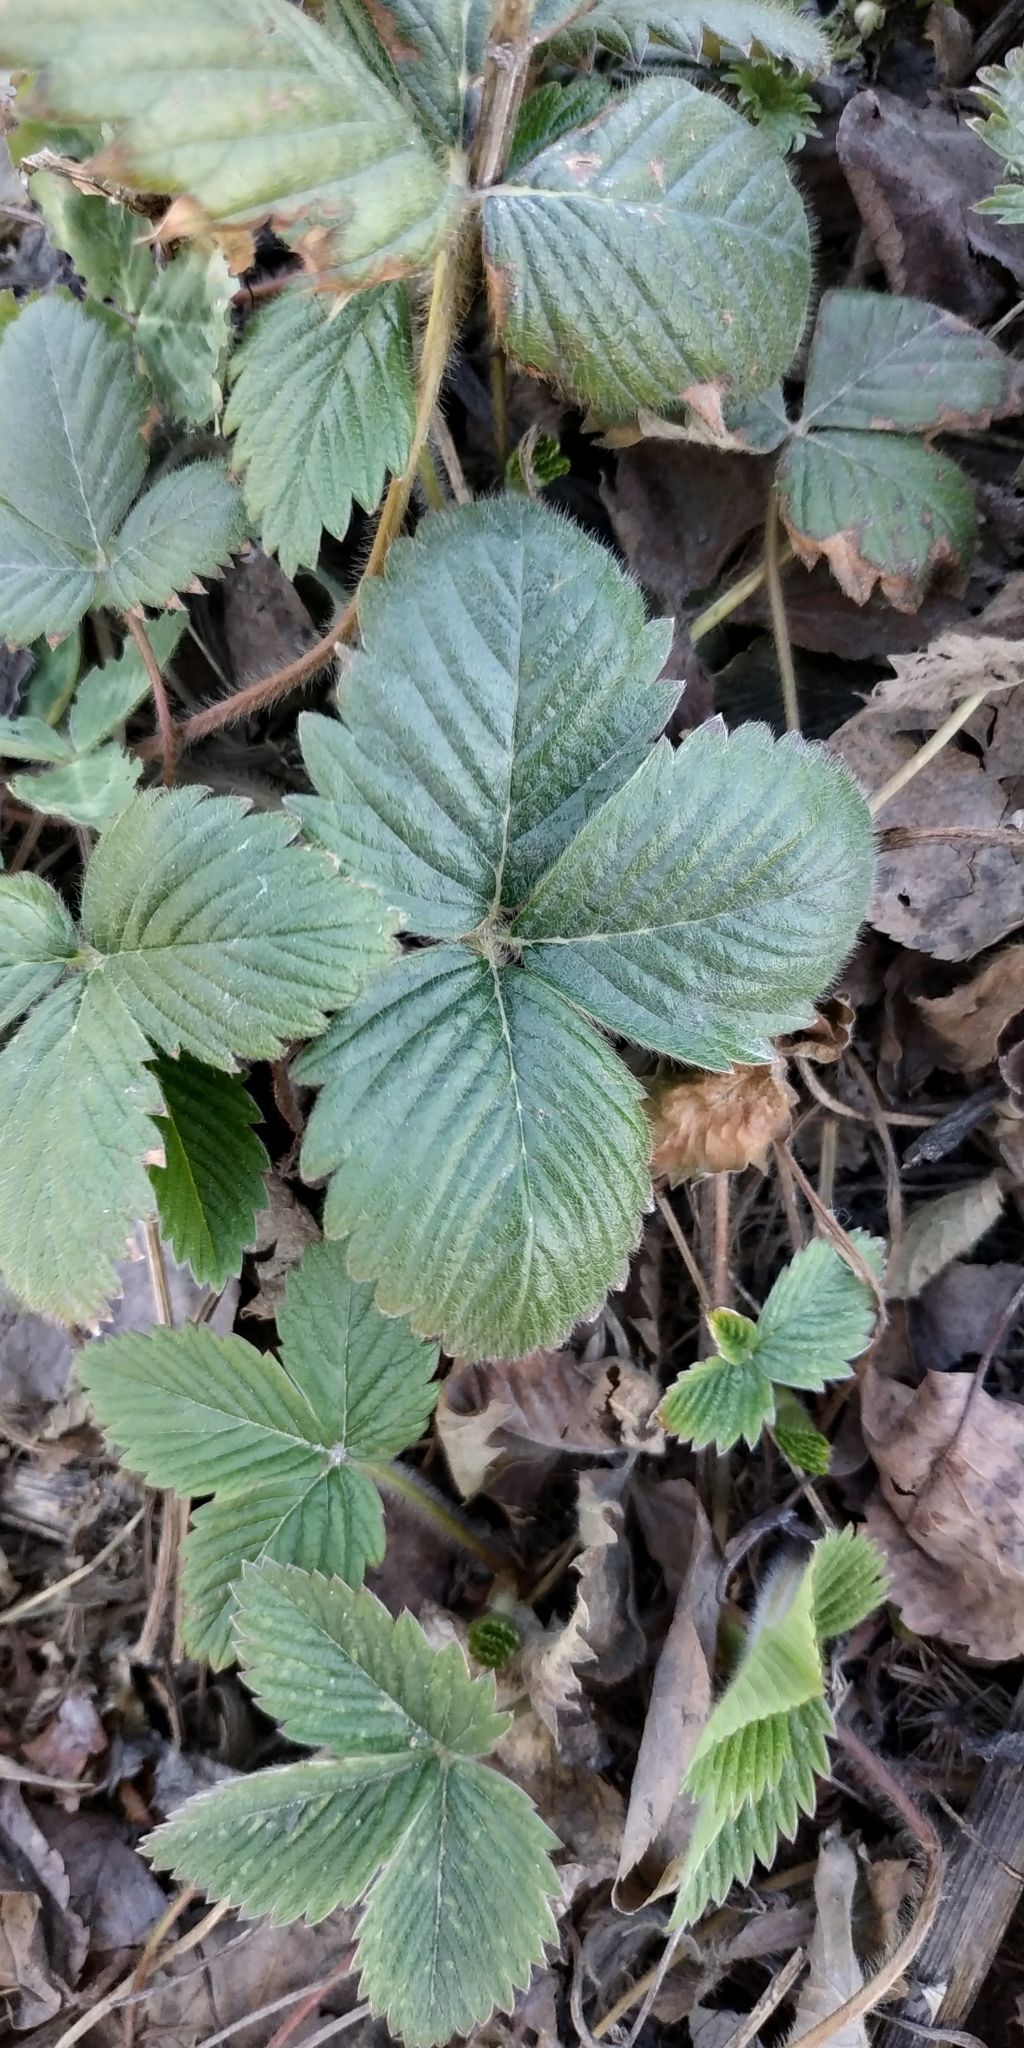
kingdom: Plantae
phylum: Tracheophyta
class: Magnoliopsida
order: Rosales
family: Rosaceae
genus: Fragaria
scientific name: Fragaria ananassa
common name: Garden strawberry
